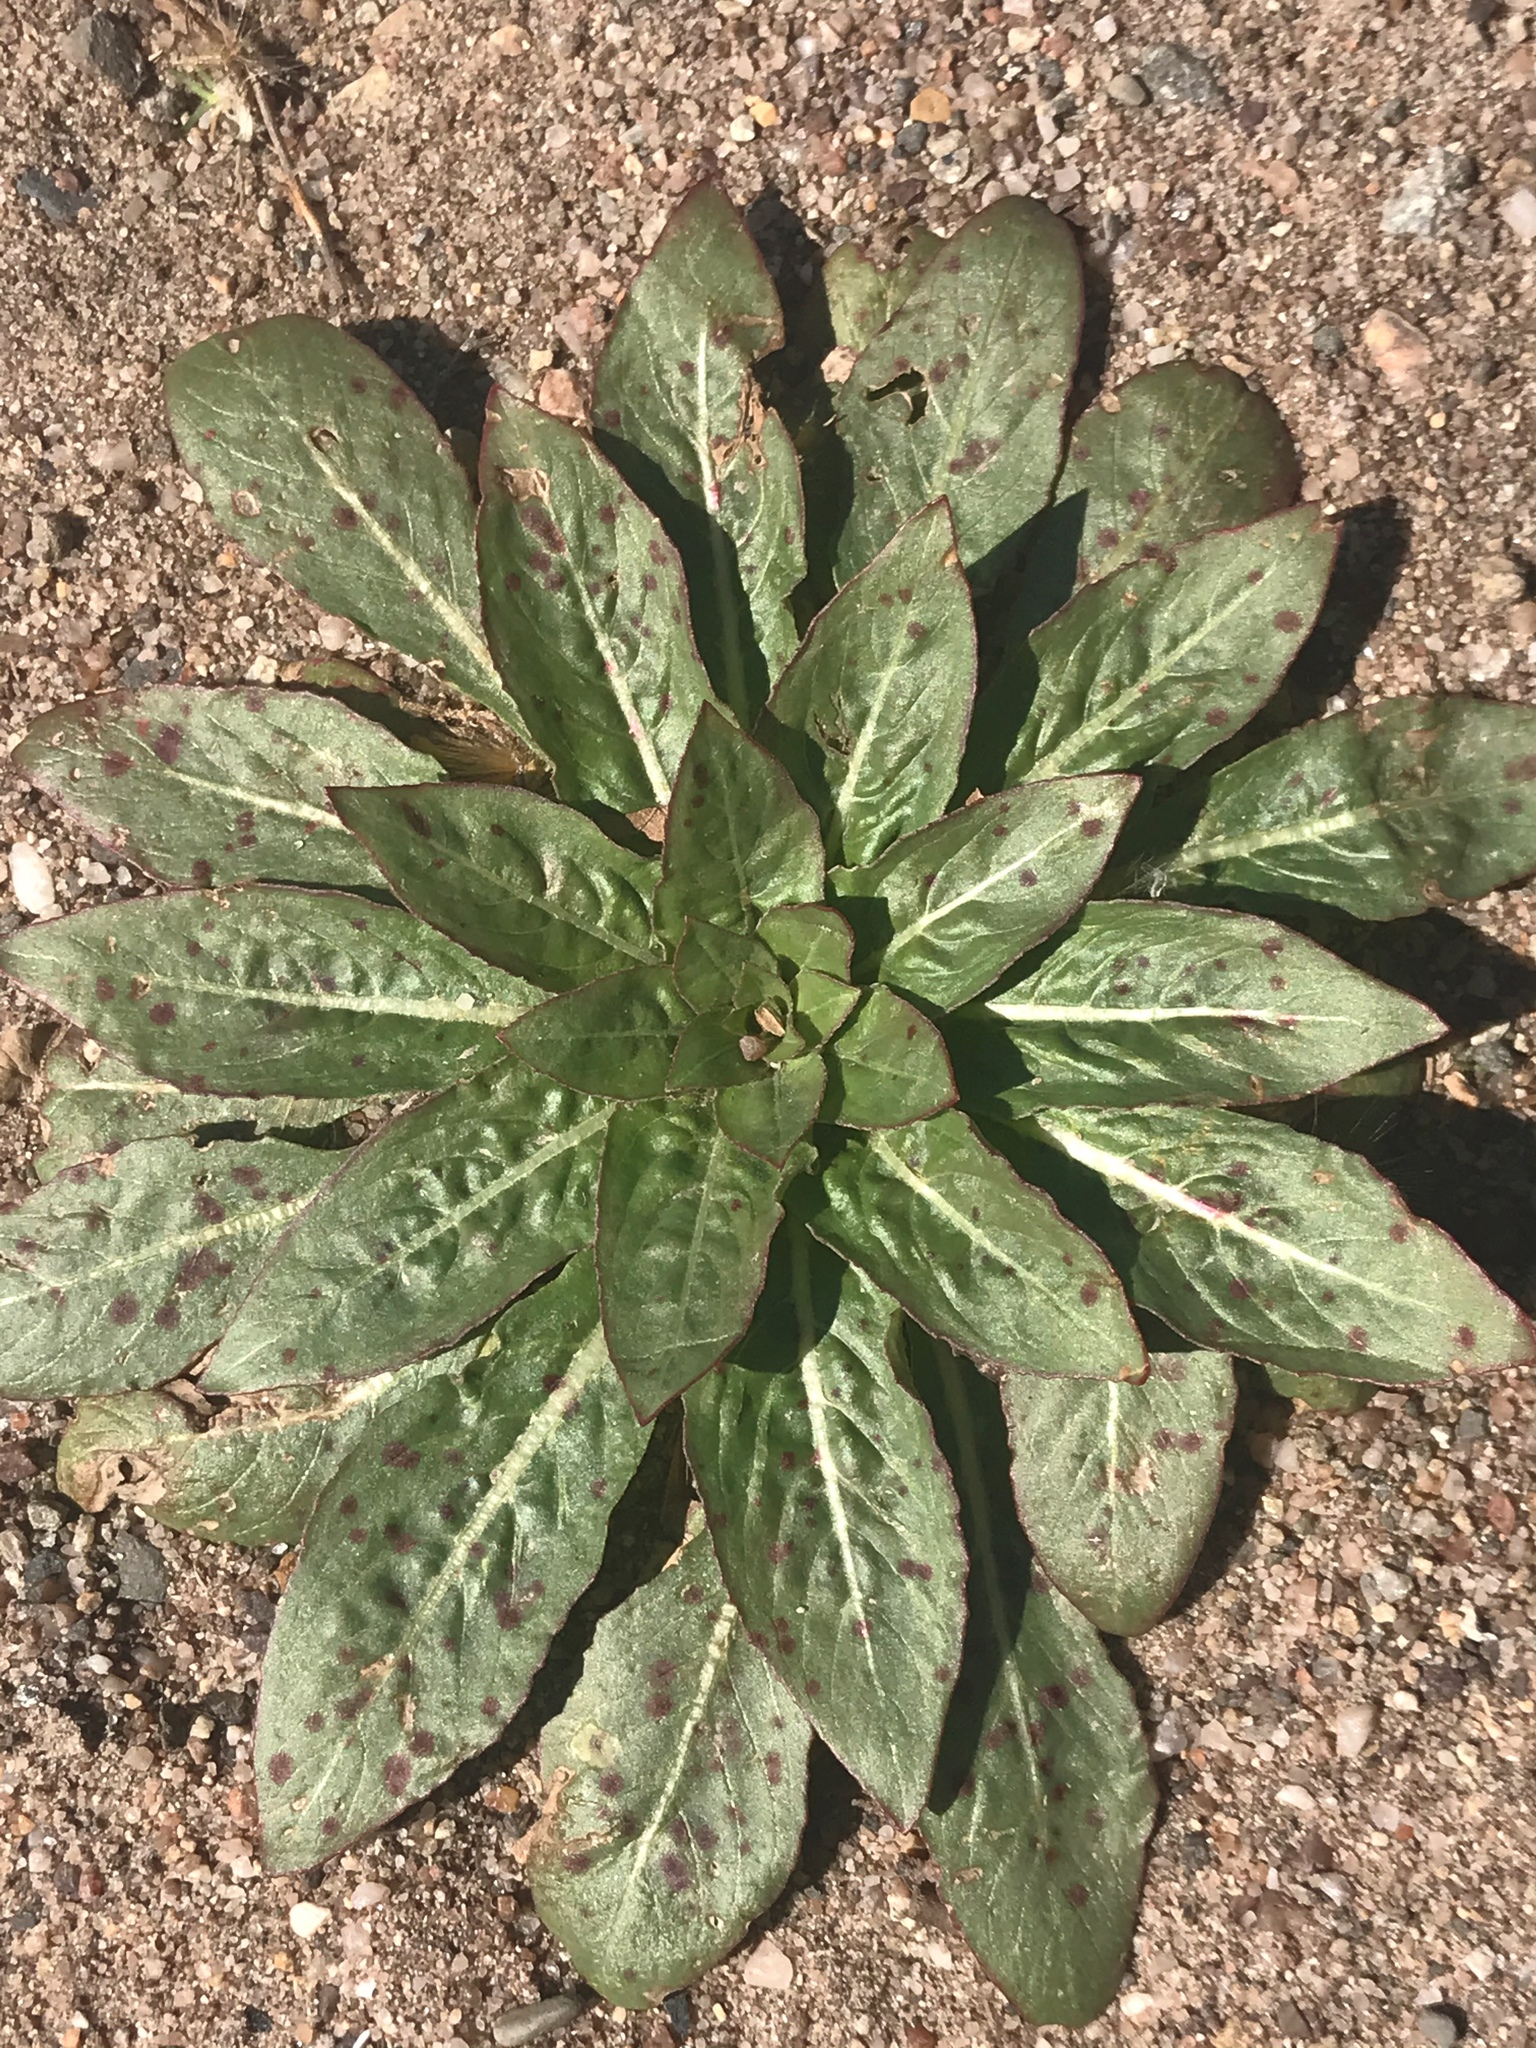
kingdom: Plantae
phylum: Tracheophyta
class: Magnoliopsida
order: Myrtales
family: Onagraceae
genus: Oenothera
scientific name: Oenothera biennis
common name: Common evening-primrose
